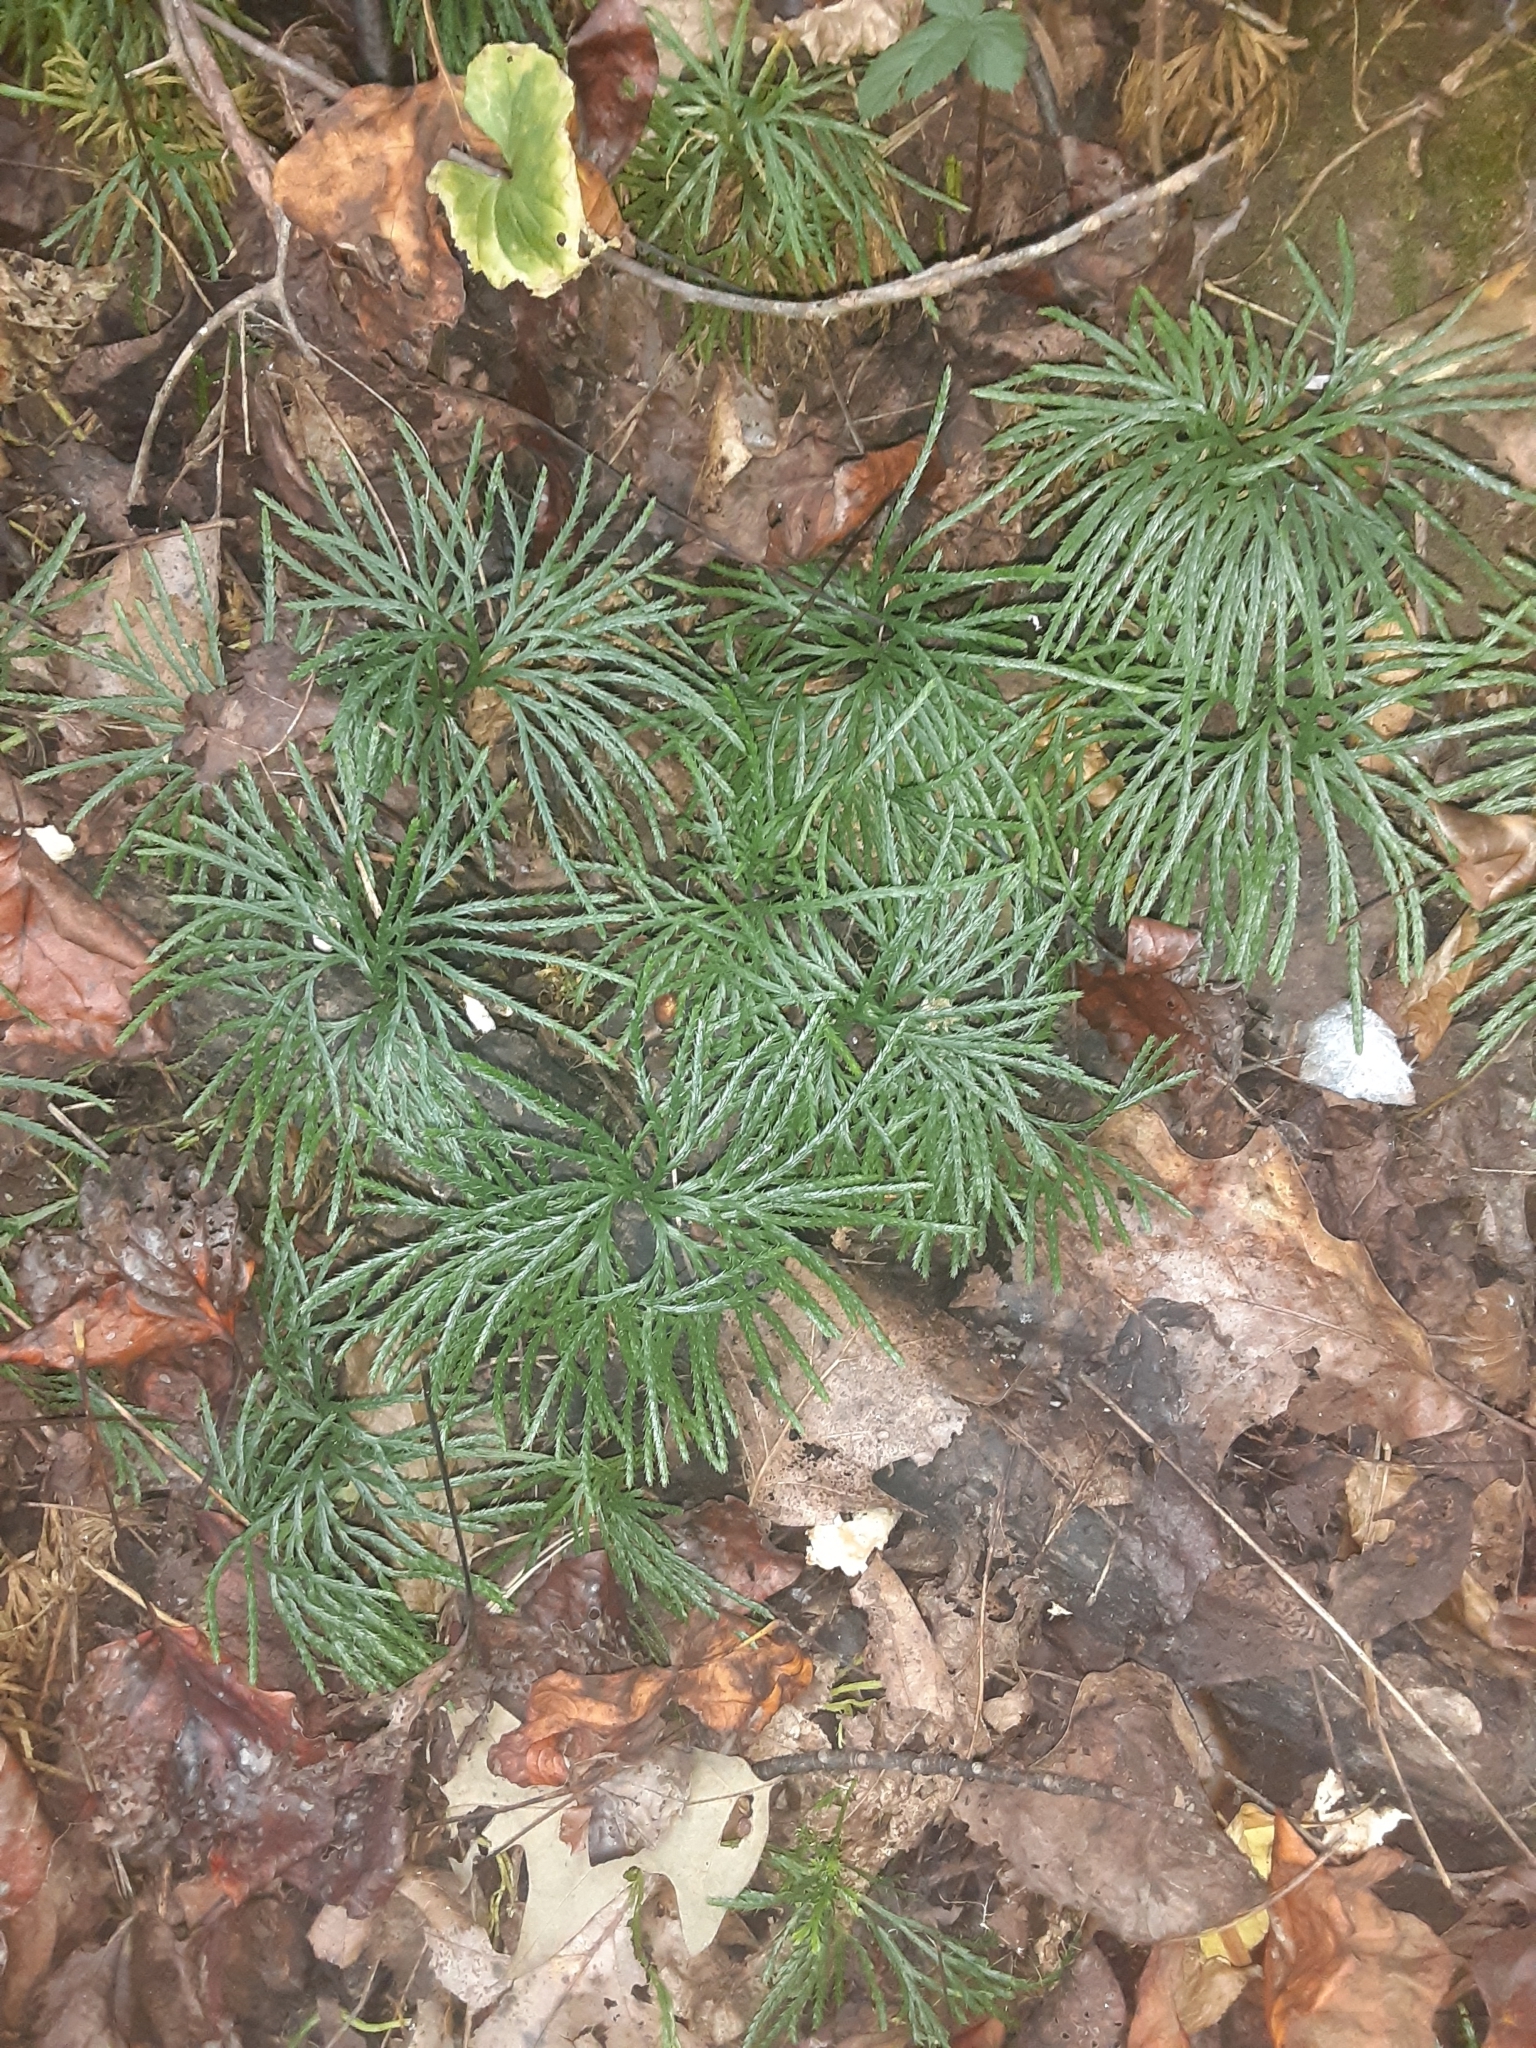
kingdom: Plantae
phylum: Tracheophyta
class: Lycopodiopsida
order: Lycopodiales
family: Lycopodiaceae
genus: Diphasiastrum
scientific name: Diphasiastrum digitatum
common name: Southern running-pine
